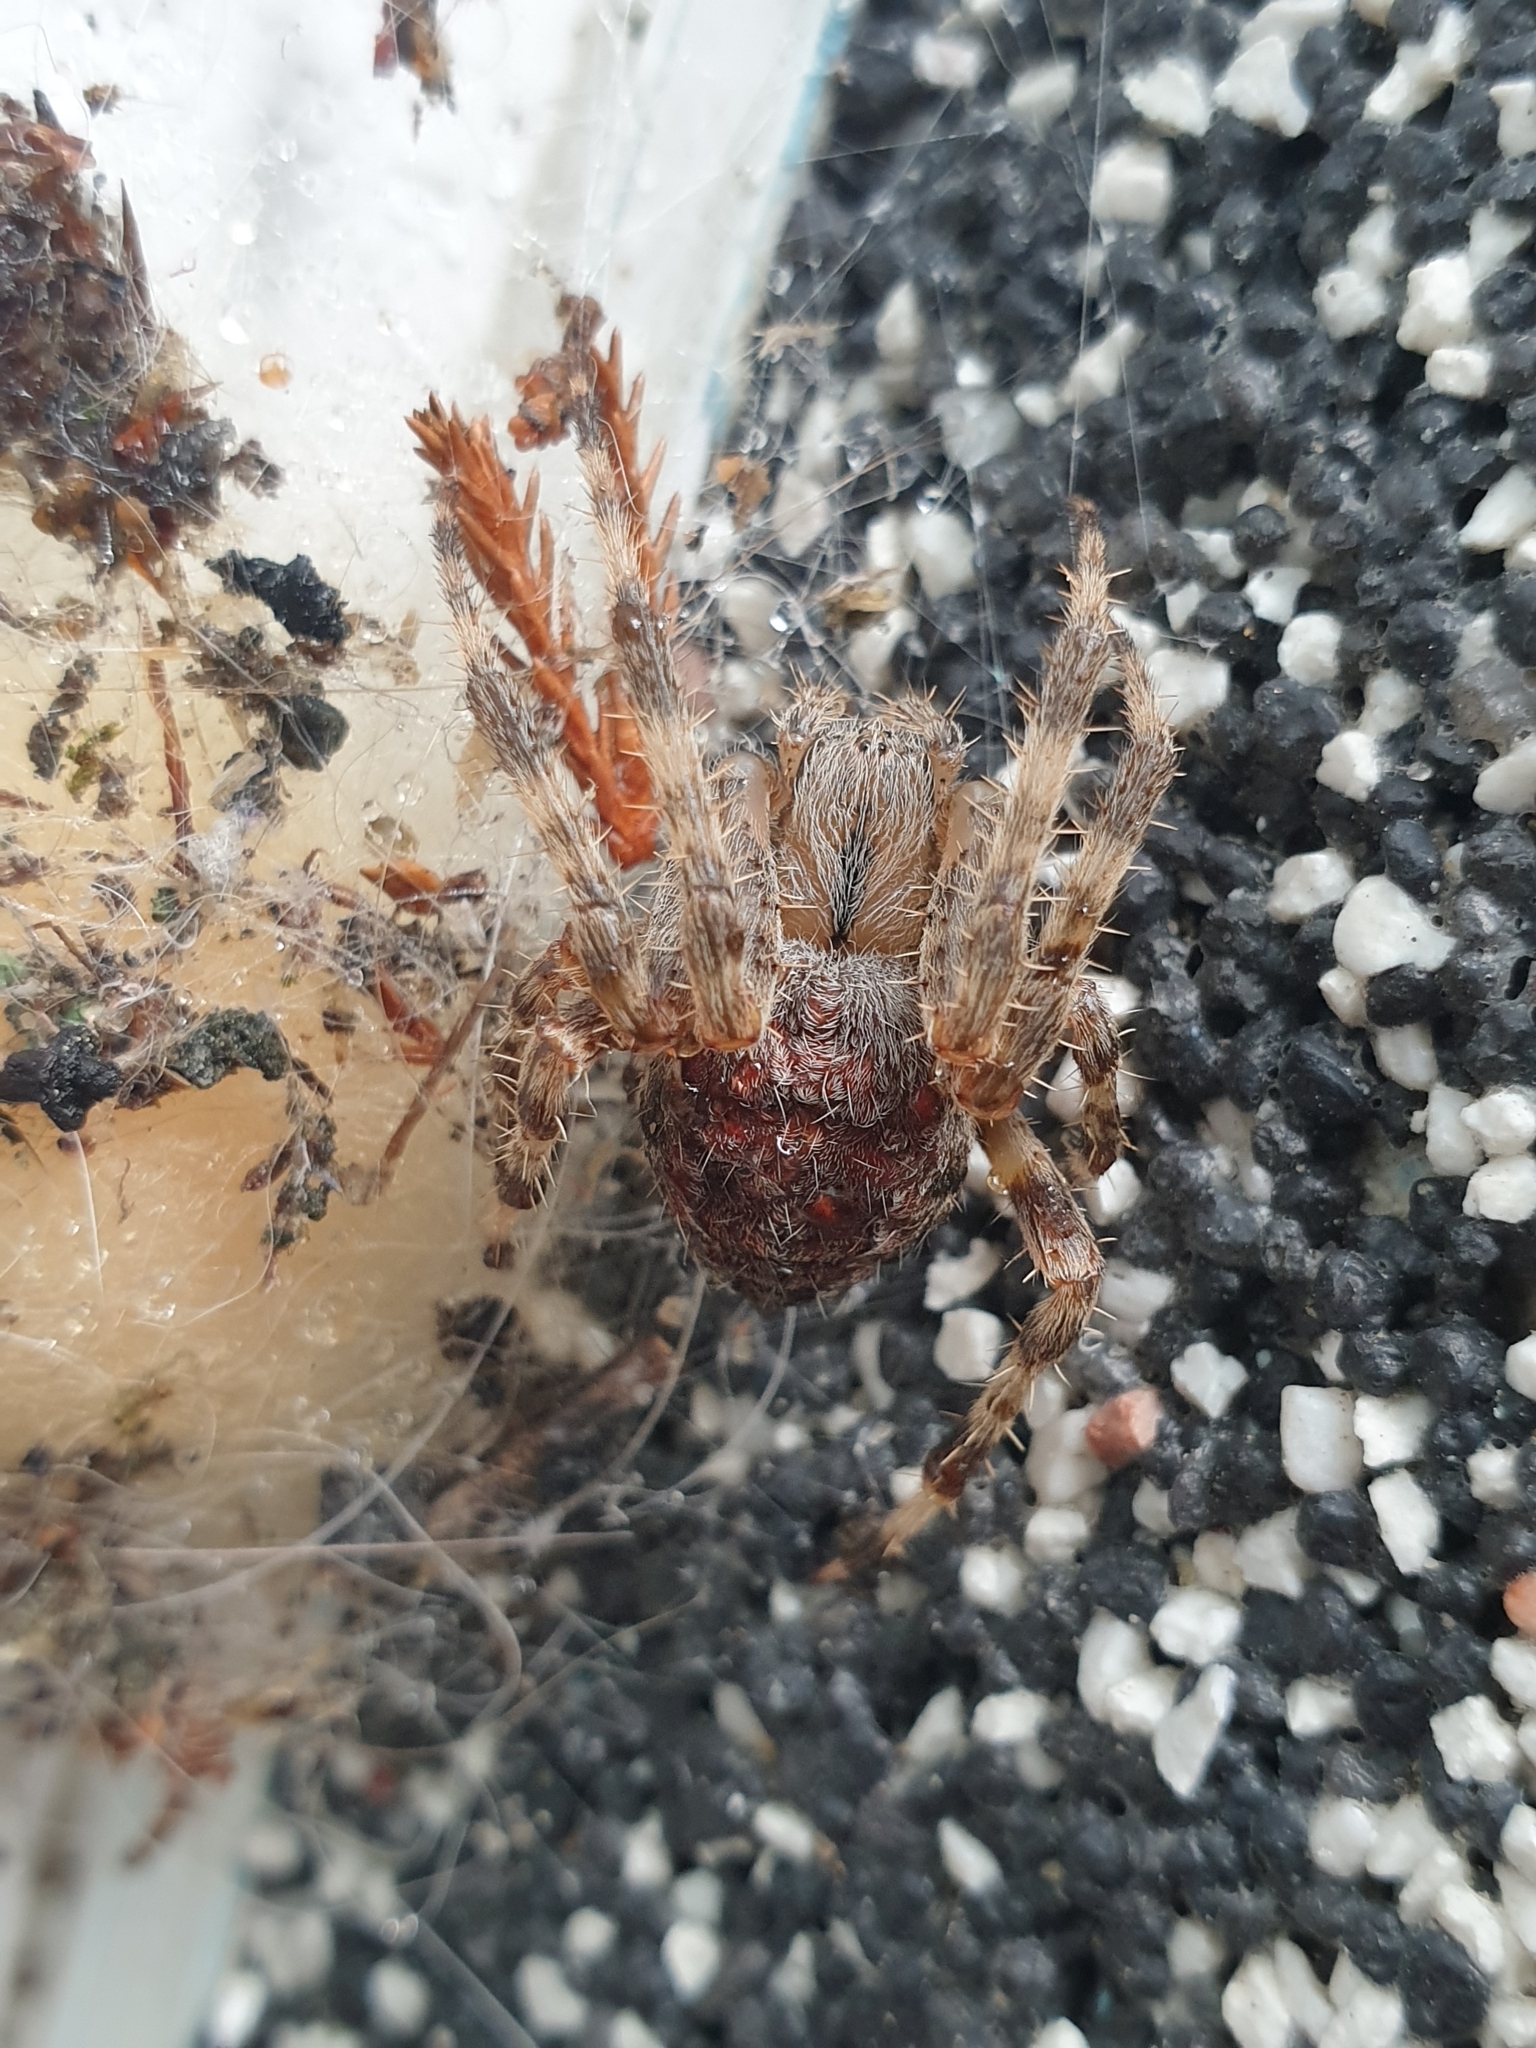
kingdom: Animalia
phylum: Arthropoda
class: Arachnida
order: Araneae
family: Araneidae
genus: Araneus
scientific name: Araneus diadematus
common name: Cross orbweaver
